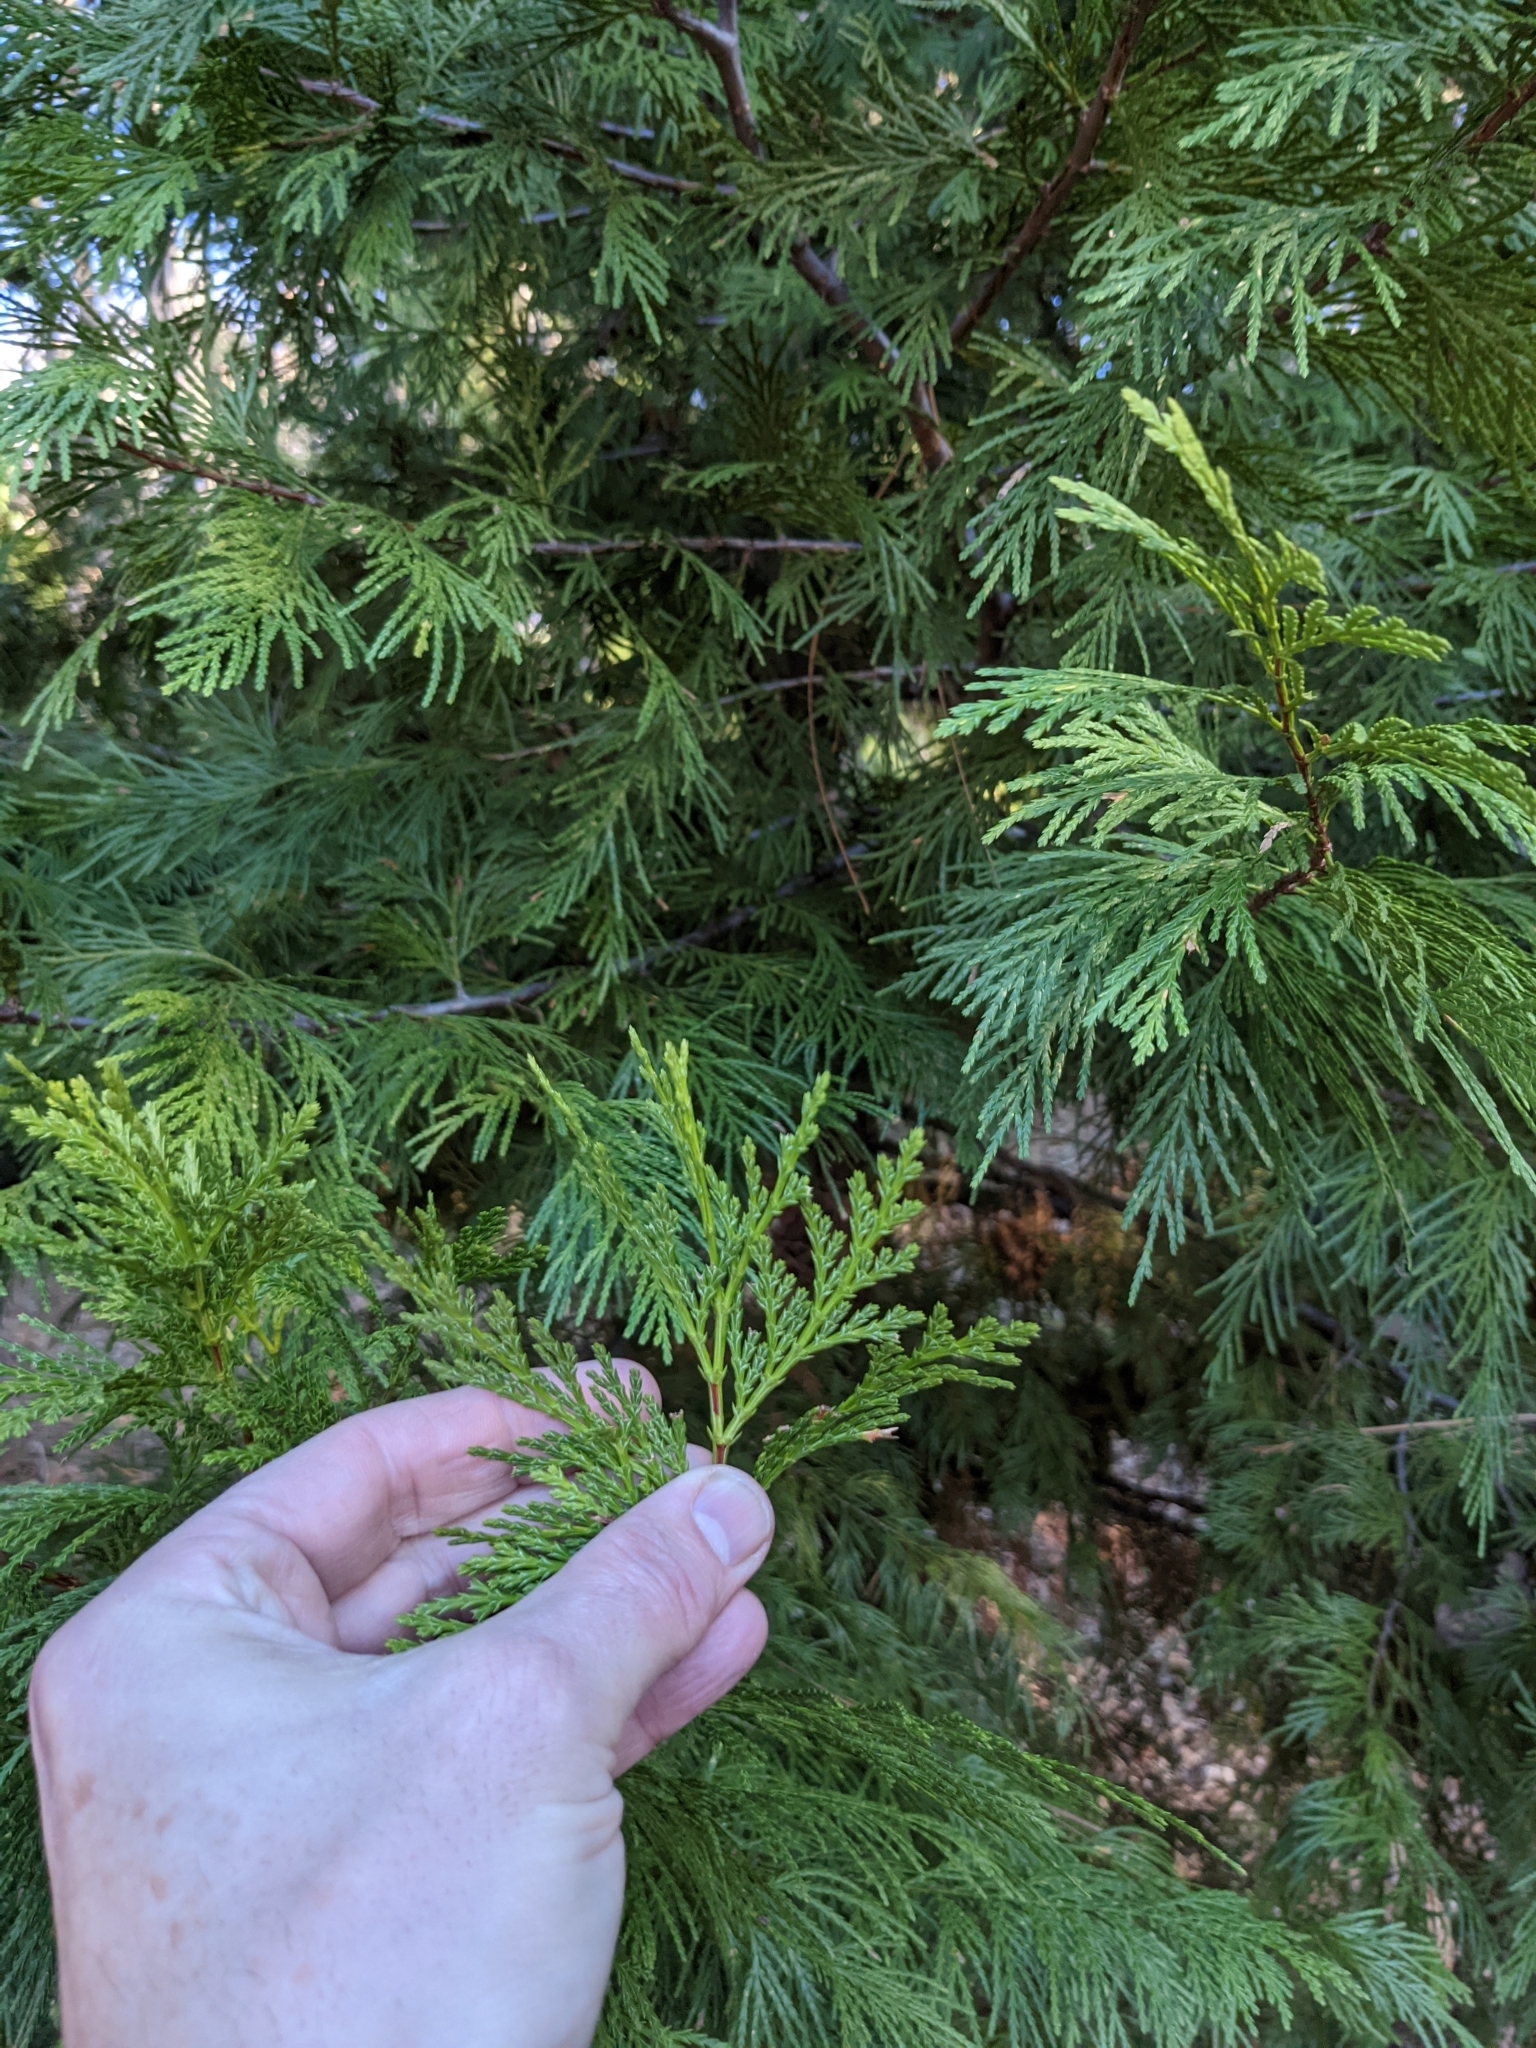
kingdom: Plantae
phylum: Tracheophyta
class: Pinopsida
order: Pinales
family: Cupressaceae
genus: Calocedrus
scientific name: Calocedrus decurrens
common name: Californian incense-cedar
